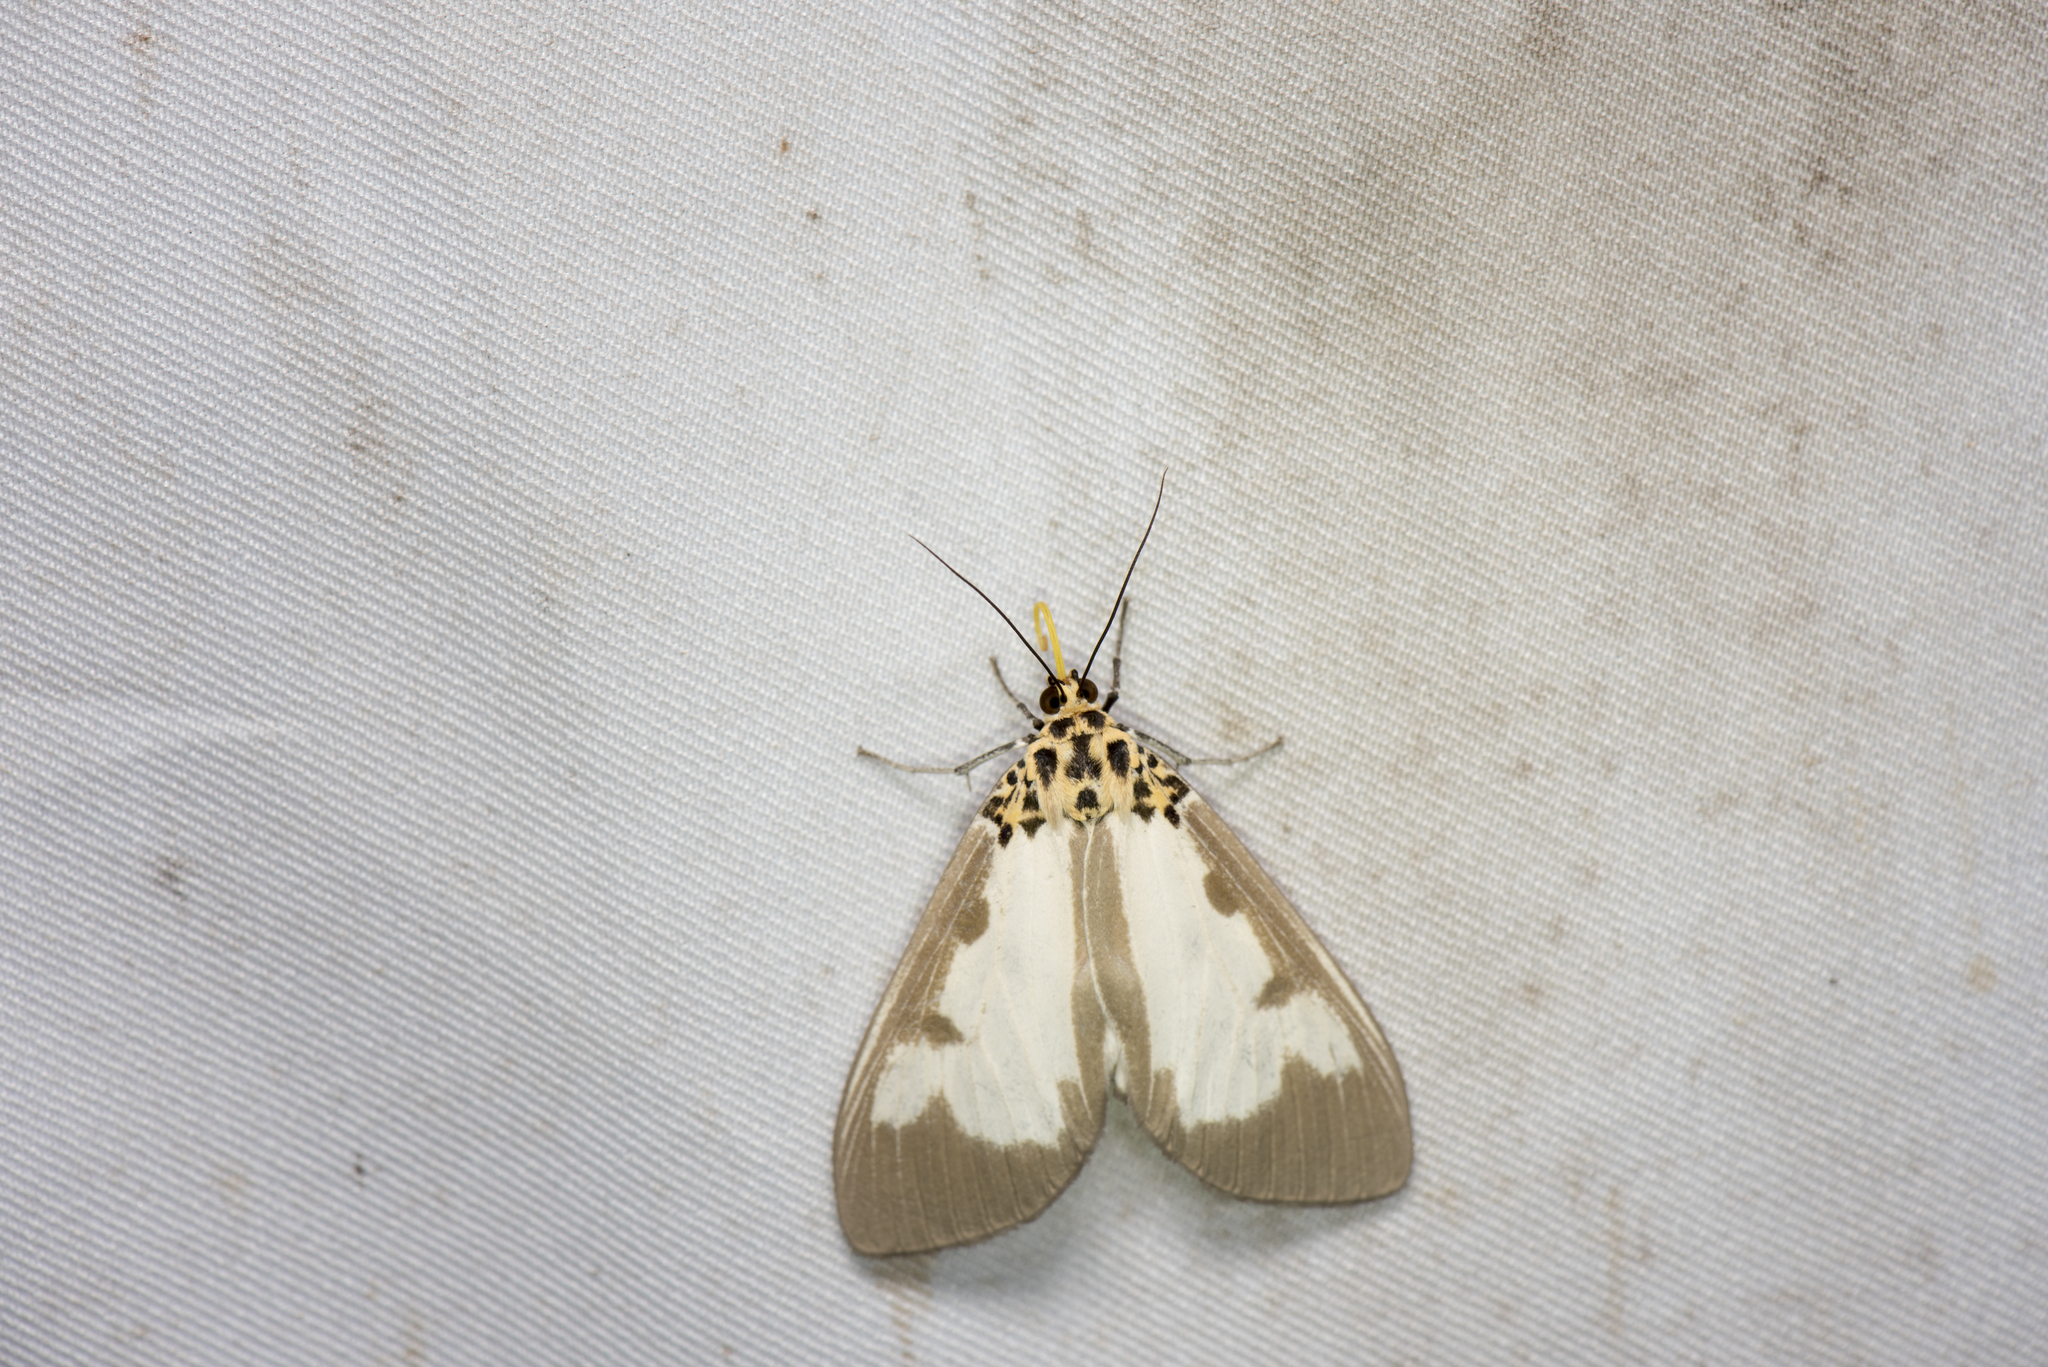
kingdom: Animalia
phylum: Arthropoda
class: Insecta
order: Lepidoptera
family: Erebidae
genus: Asota
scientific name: Asota plana
